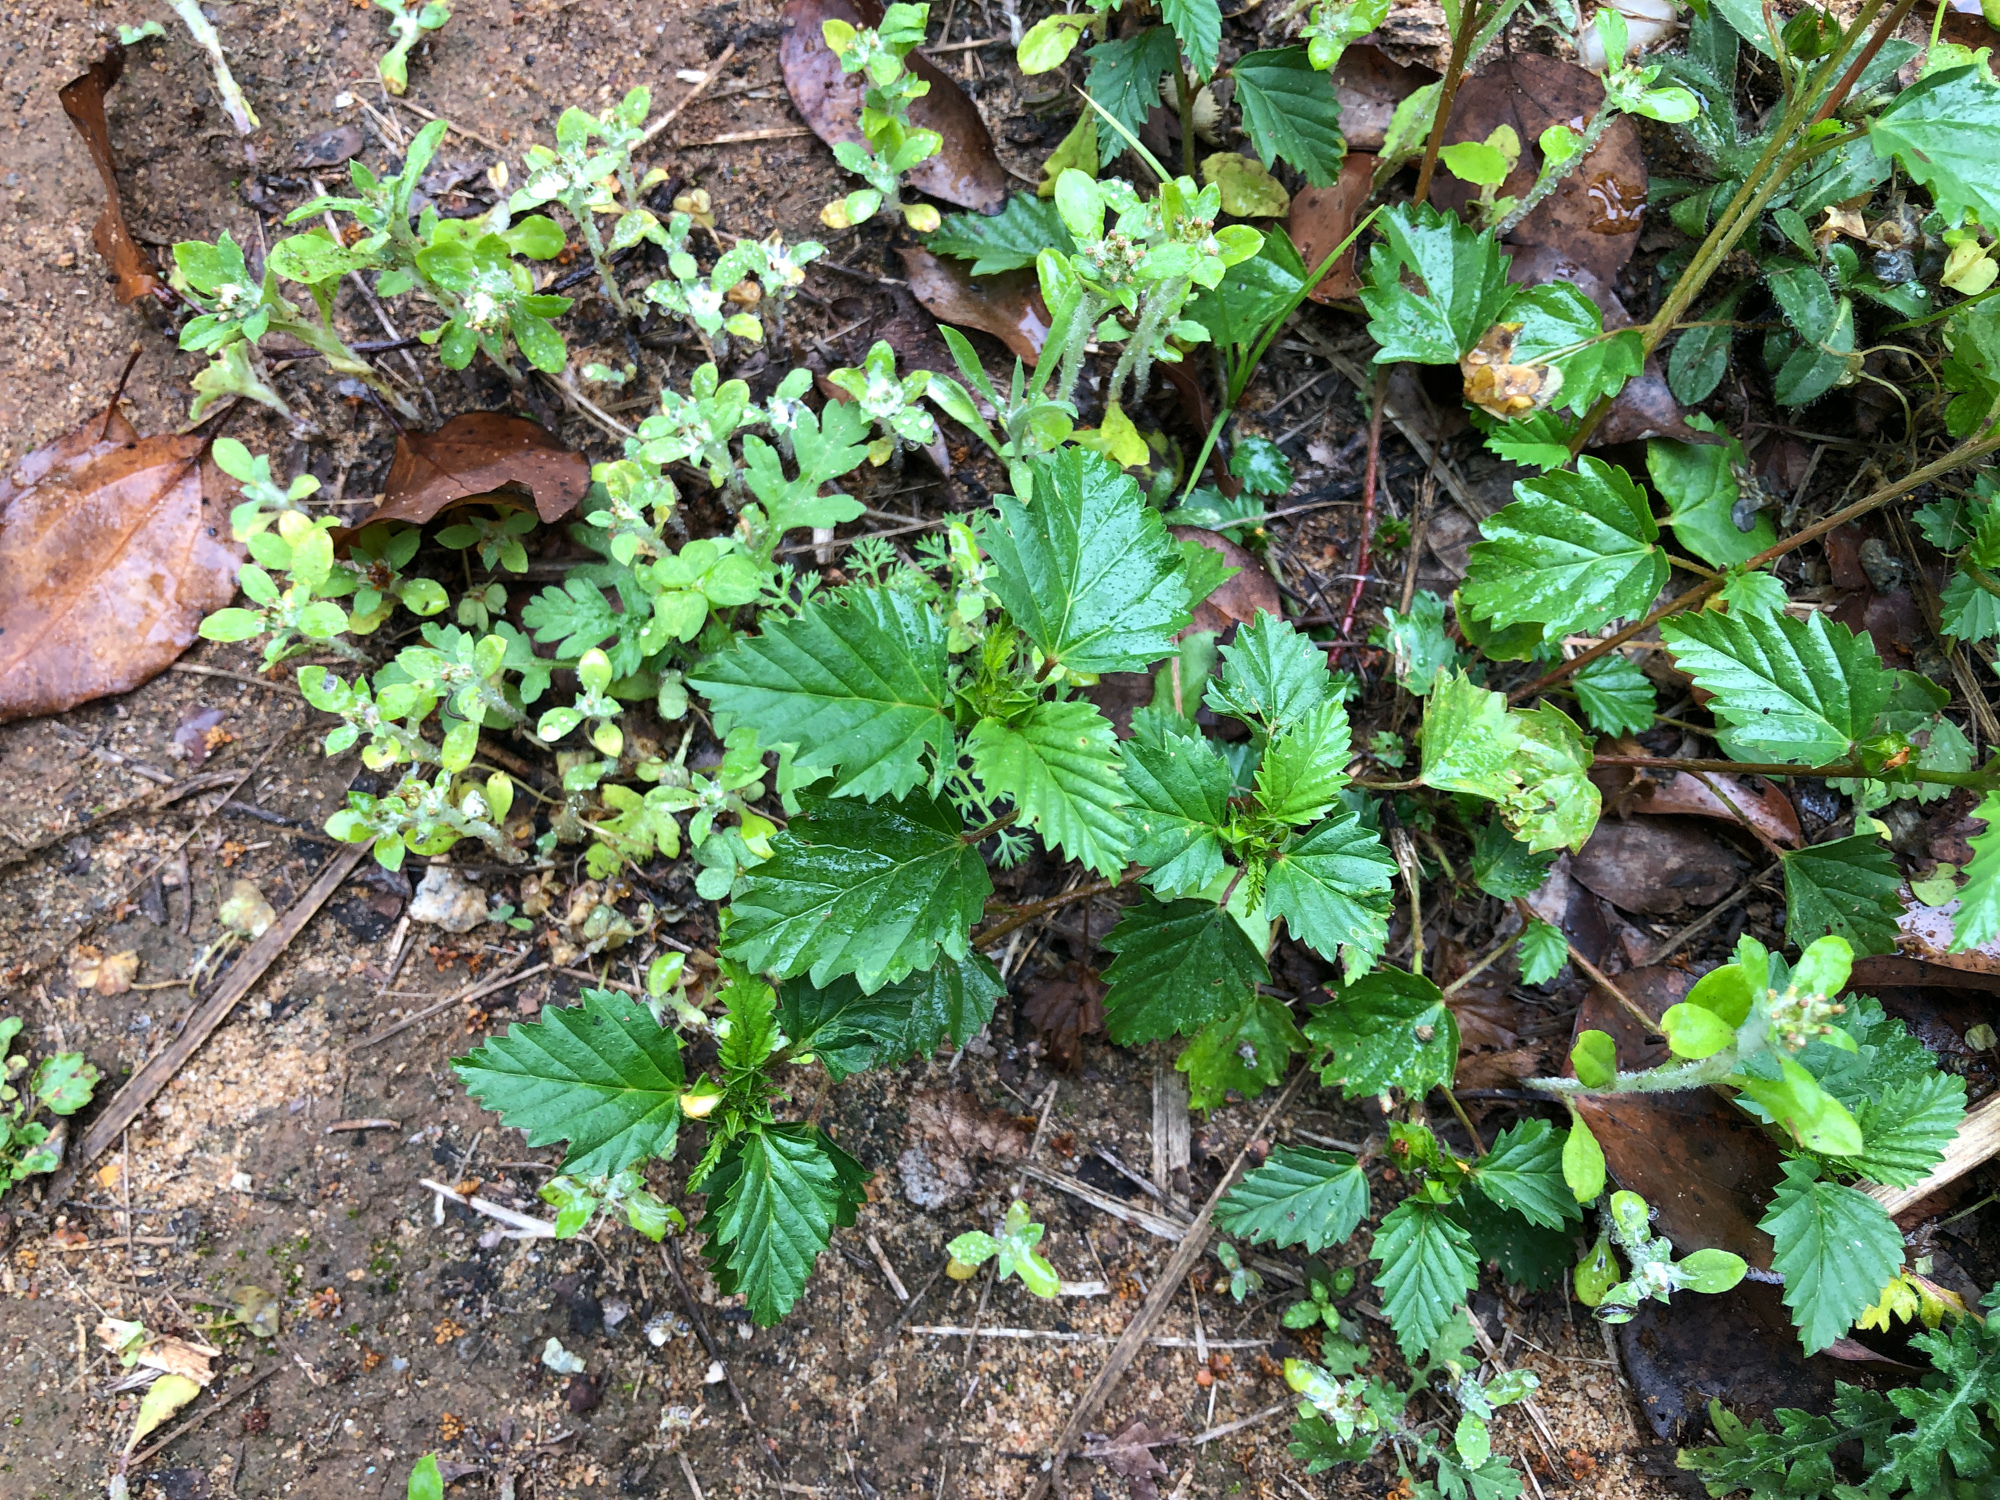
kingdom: Plantae
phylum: Tracheophyta
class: Magnoliopsida
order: Malvales
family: Malvaceae
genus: Malvastrum
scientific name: Malvastrum coromandelianum
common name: Threelobe false mallow
